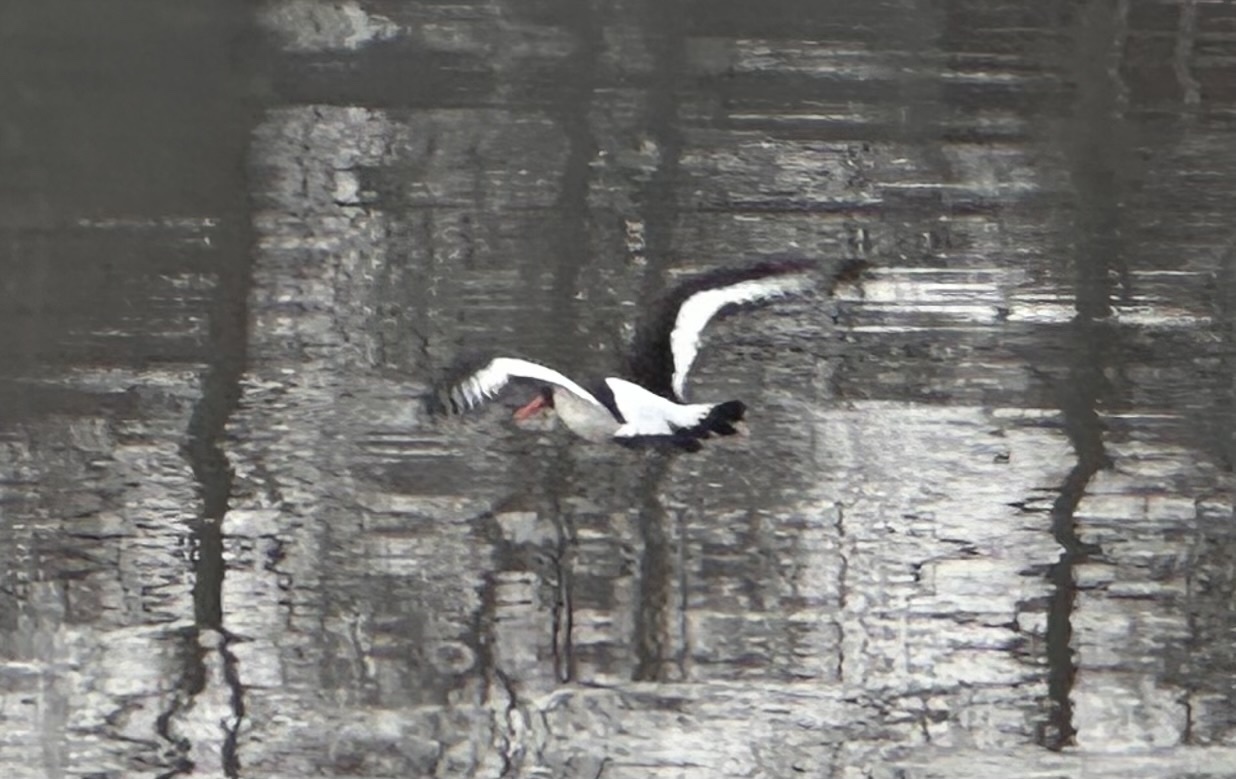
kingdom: Animalia
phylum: Chordata
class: Aves
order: Charadriiformes
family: Haematopodidae
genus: Haematopus
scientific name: Haematopus ostralegus
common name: Eurasian oystercatcher
